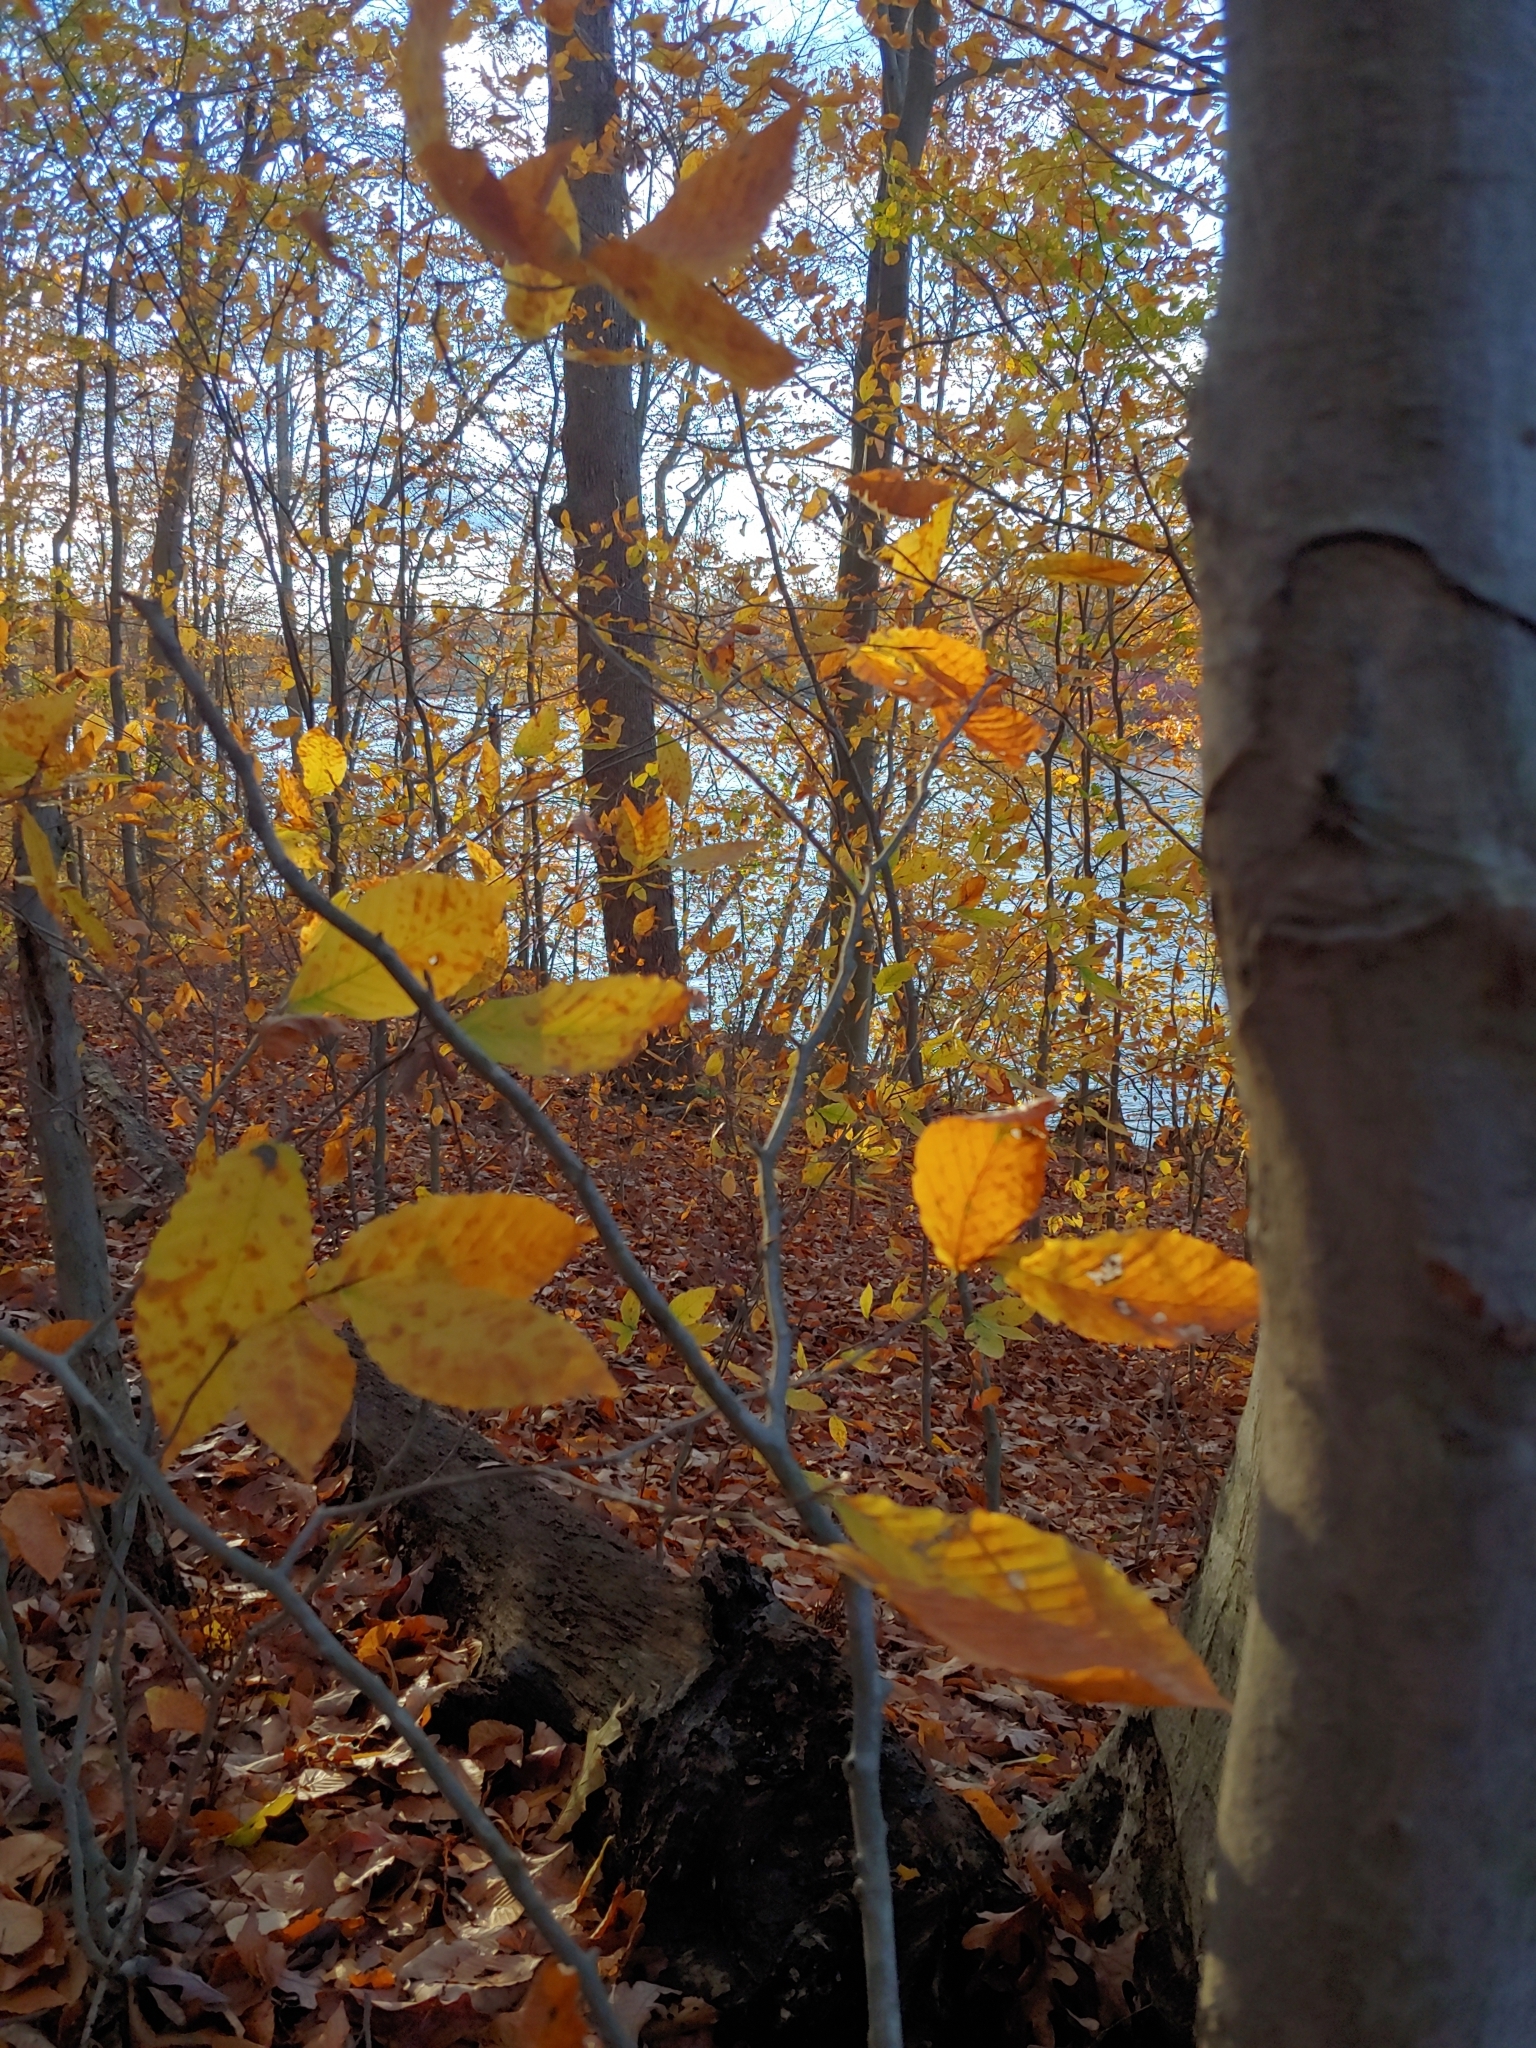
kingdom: Plantae
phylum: Tracheophyta
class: Magnoliopsida
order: Fagales
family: Fagaceae
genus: Fagus
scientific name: Fagus grandifolia
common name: American beech
